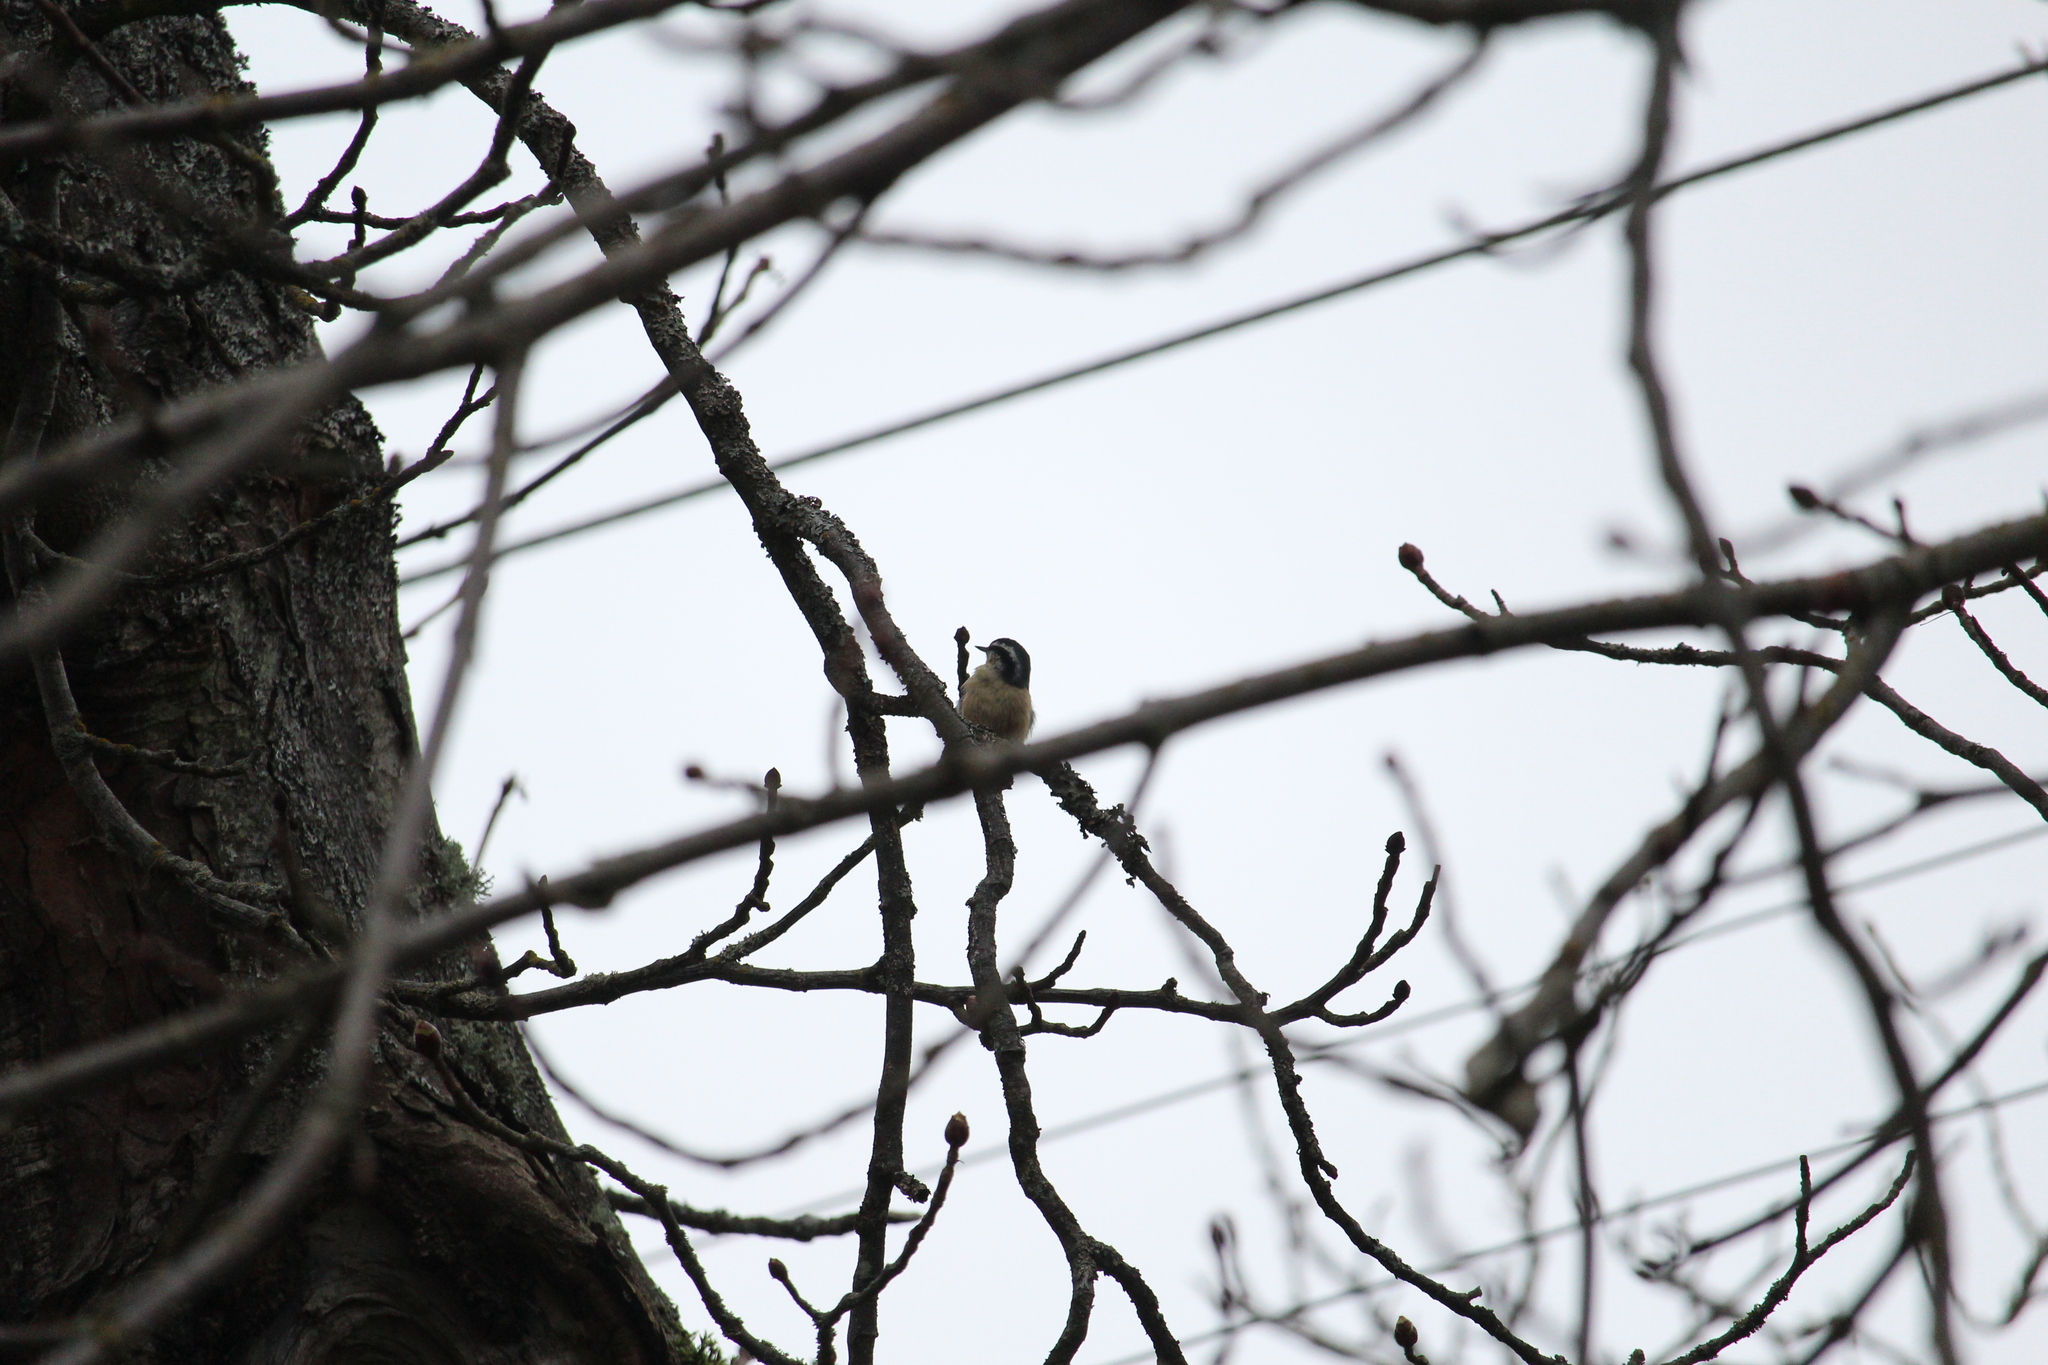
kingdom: Animalia
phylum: Chordata
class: Aves
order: Passeriformes
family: Sittidae
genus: Sitta
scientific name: Sitta canadensis
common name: Red-breasted nuthatch
